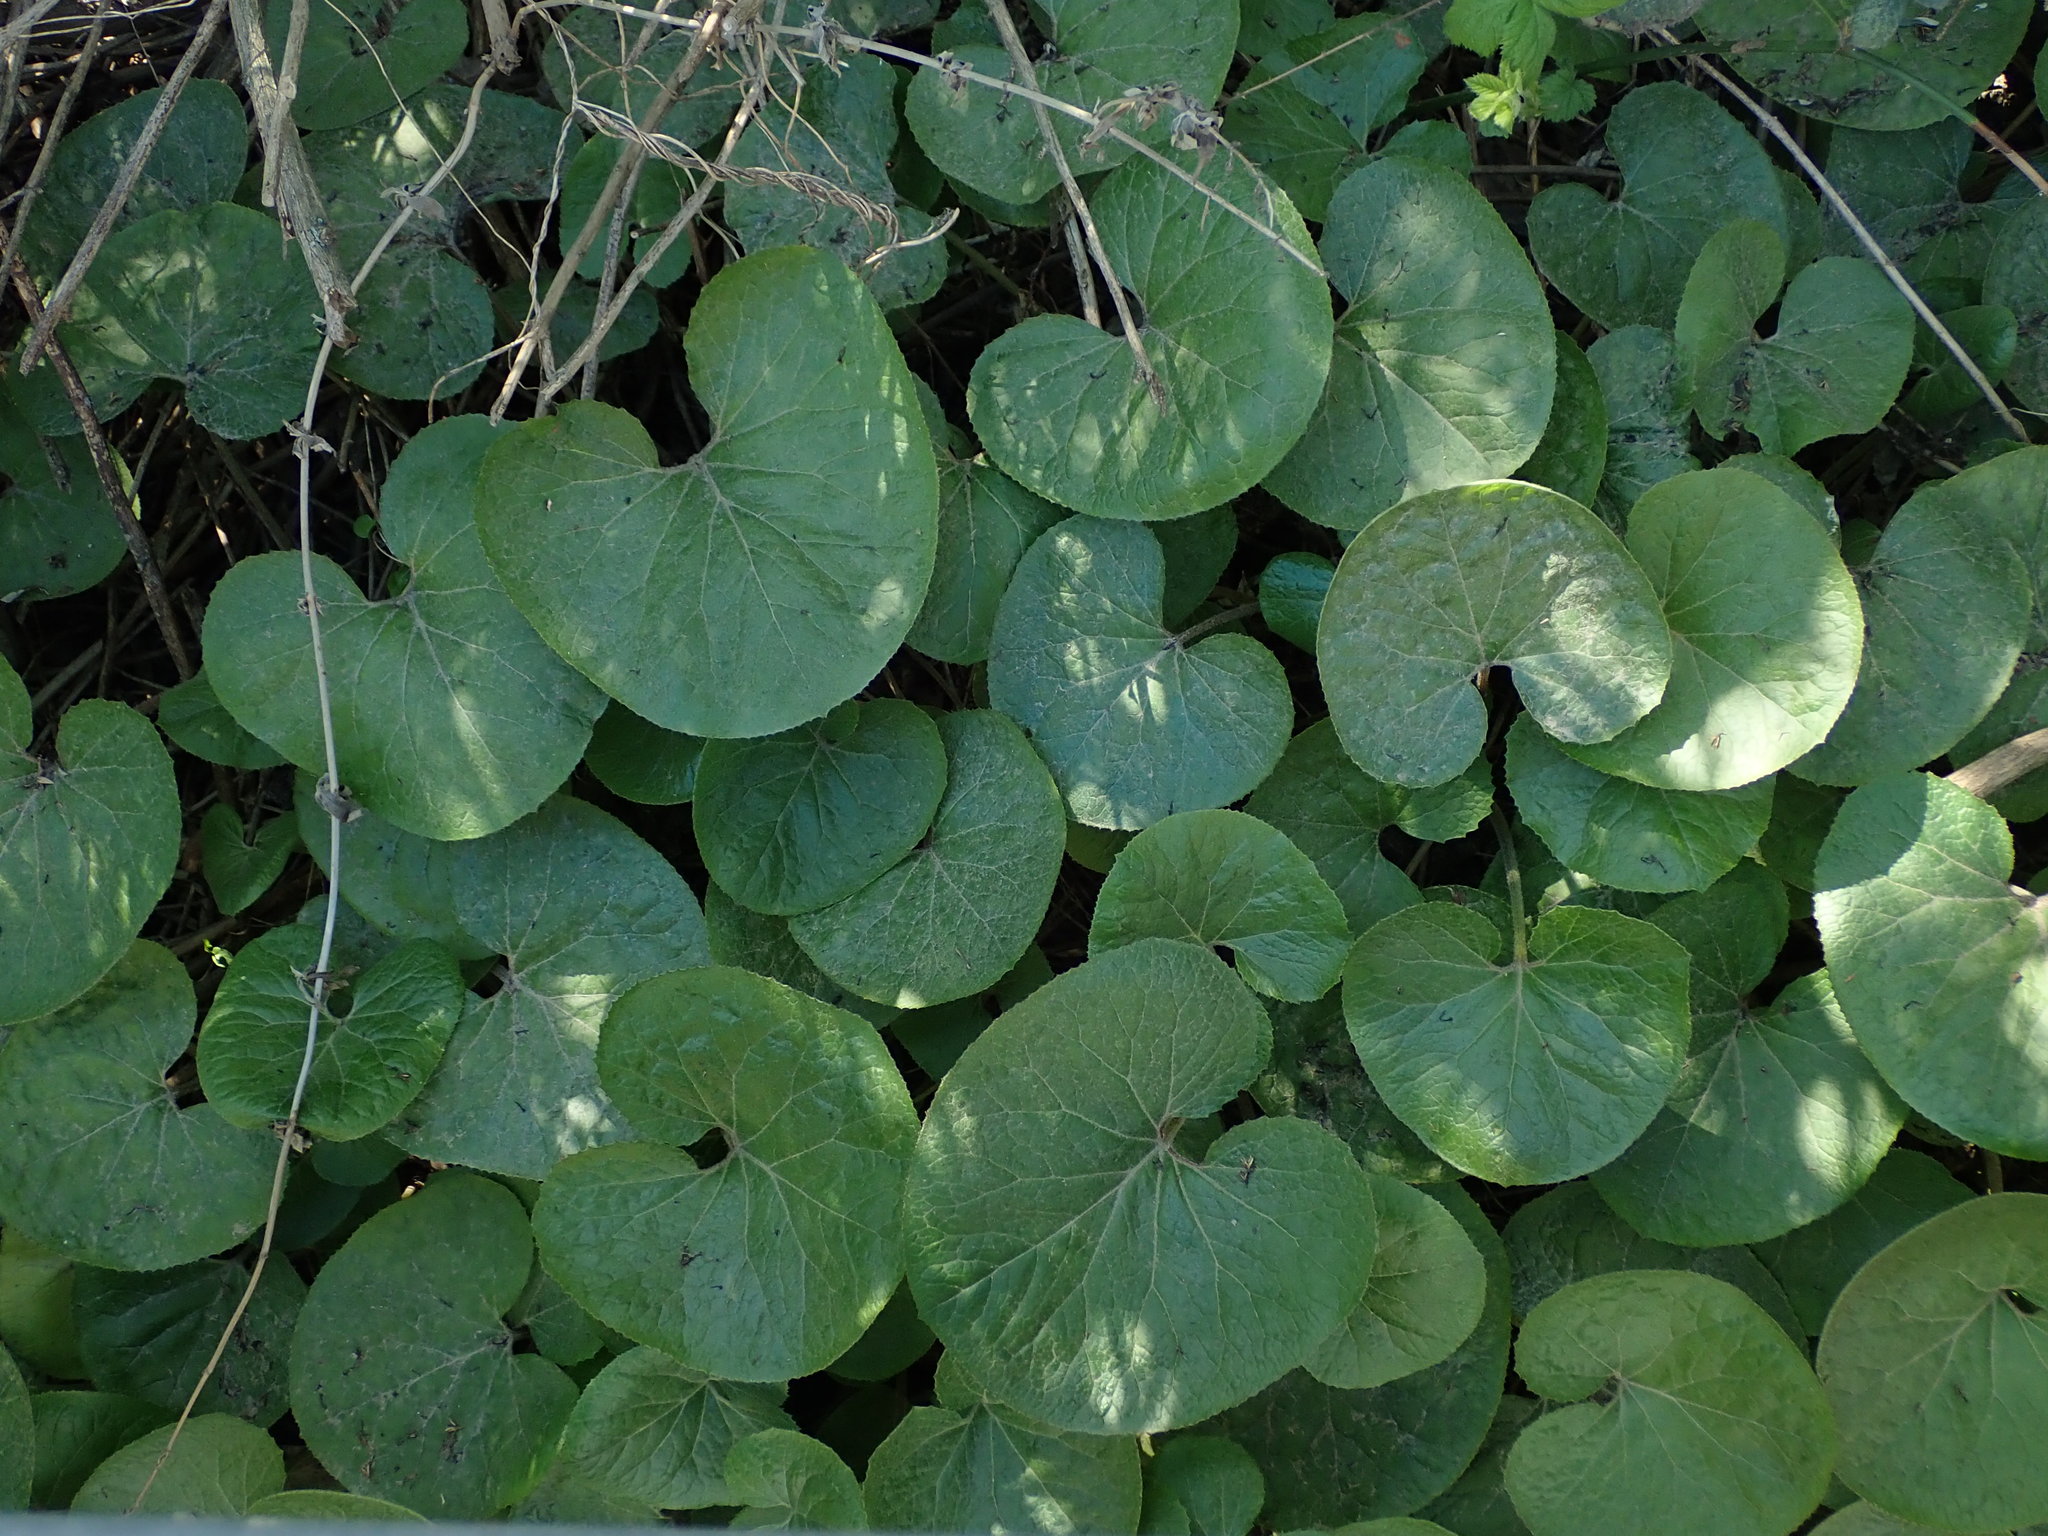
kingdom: Plantae
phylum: Tracheophyta
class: Magnoliopsida
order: Asterales
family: Asteraceae
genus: Petasites
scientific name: Petasites pyrenaicus
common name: Winter heliotrope
